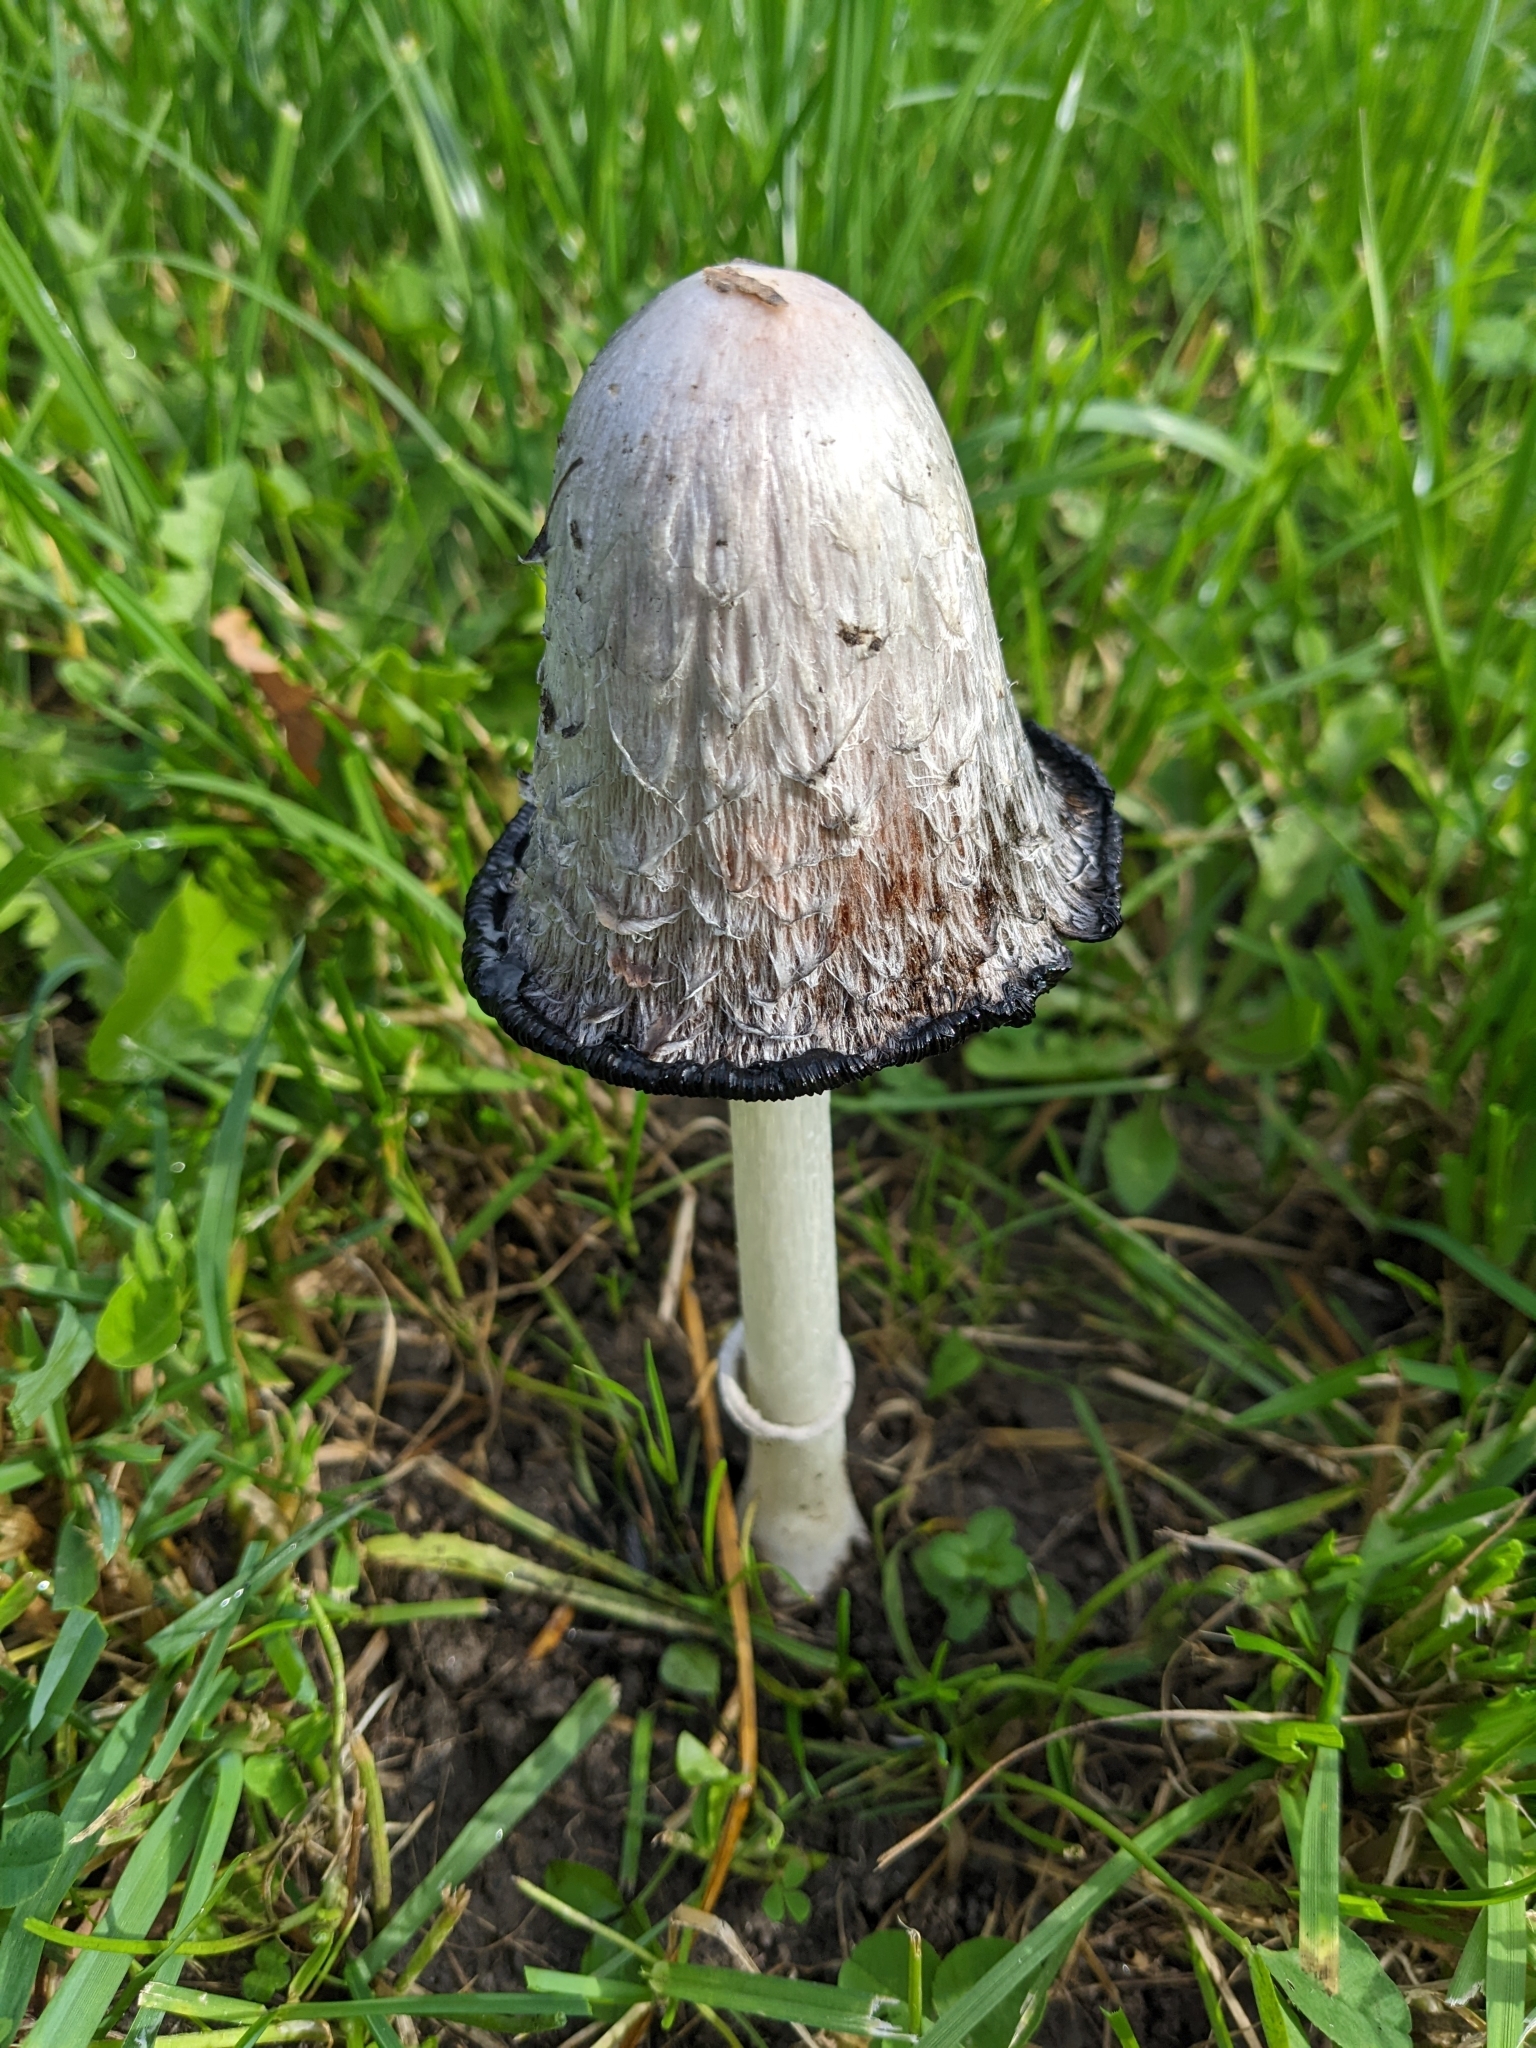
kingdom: Fungi
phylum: Basidiomycota
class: Agaricomycetes
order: Agaricales
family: Agaricaceae
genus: Coprinus
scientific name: Coprinus comatus
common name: Lawyer's wig
